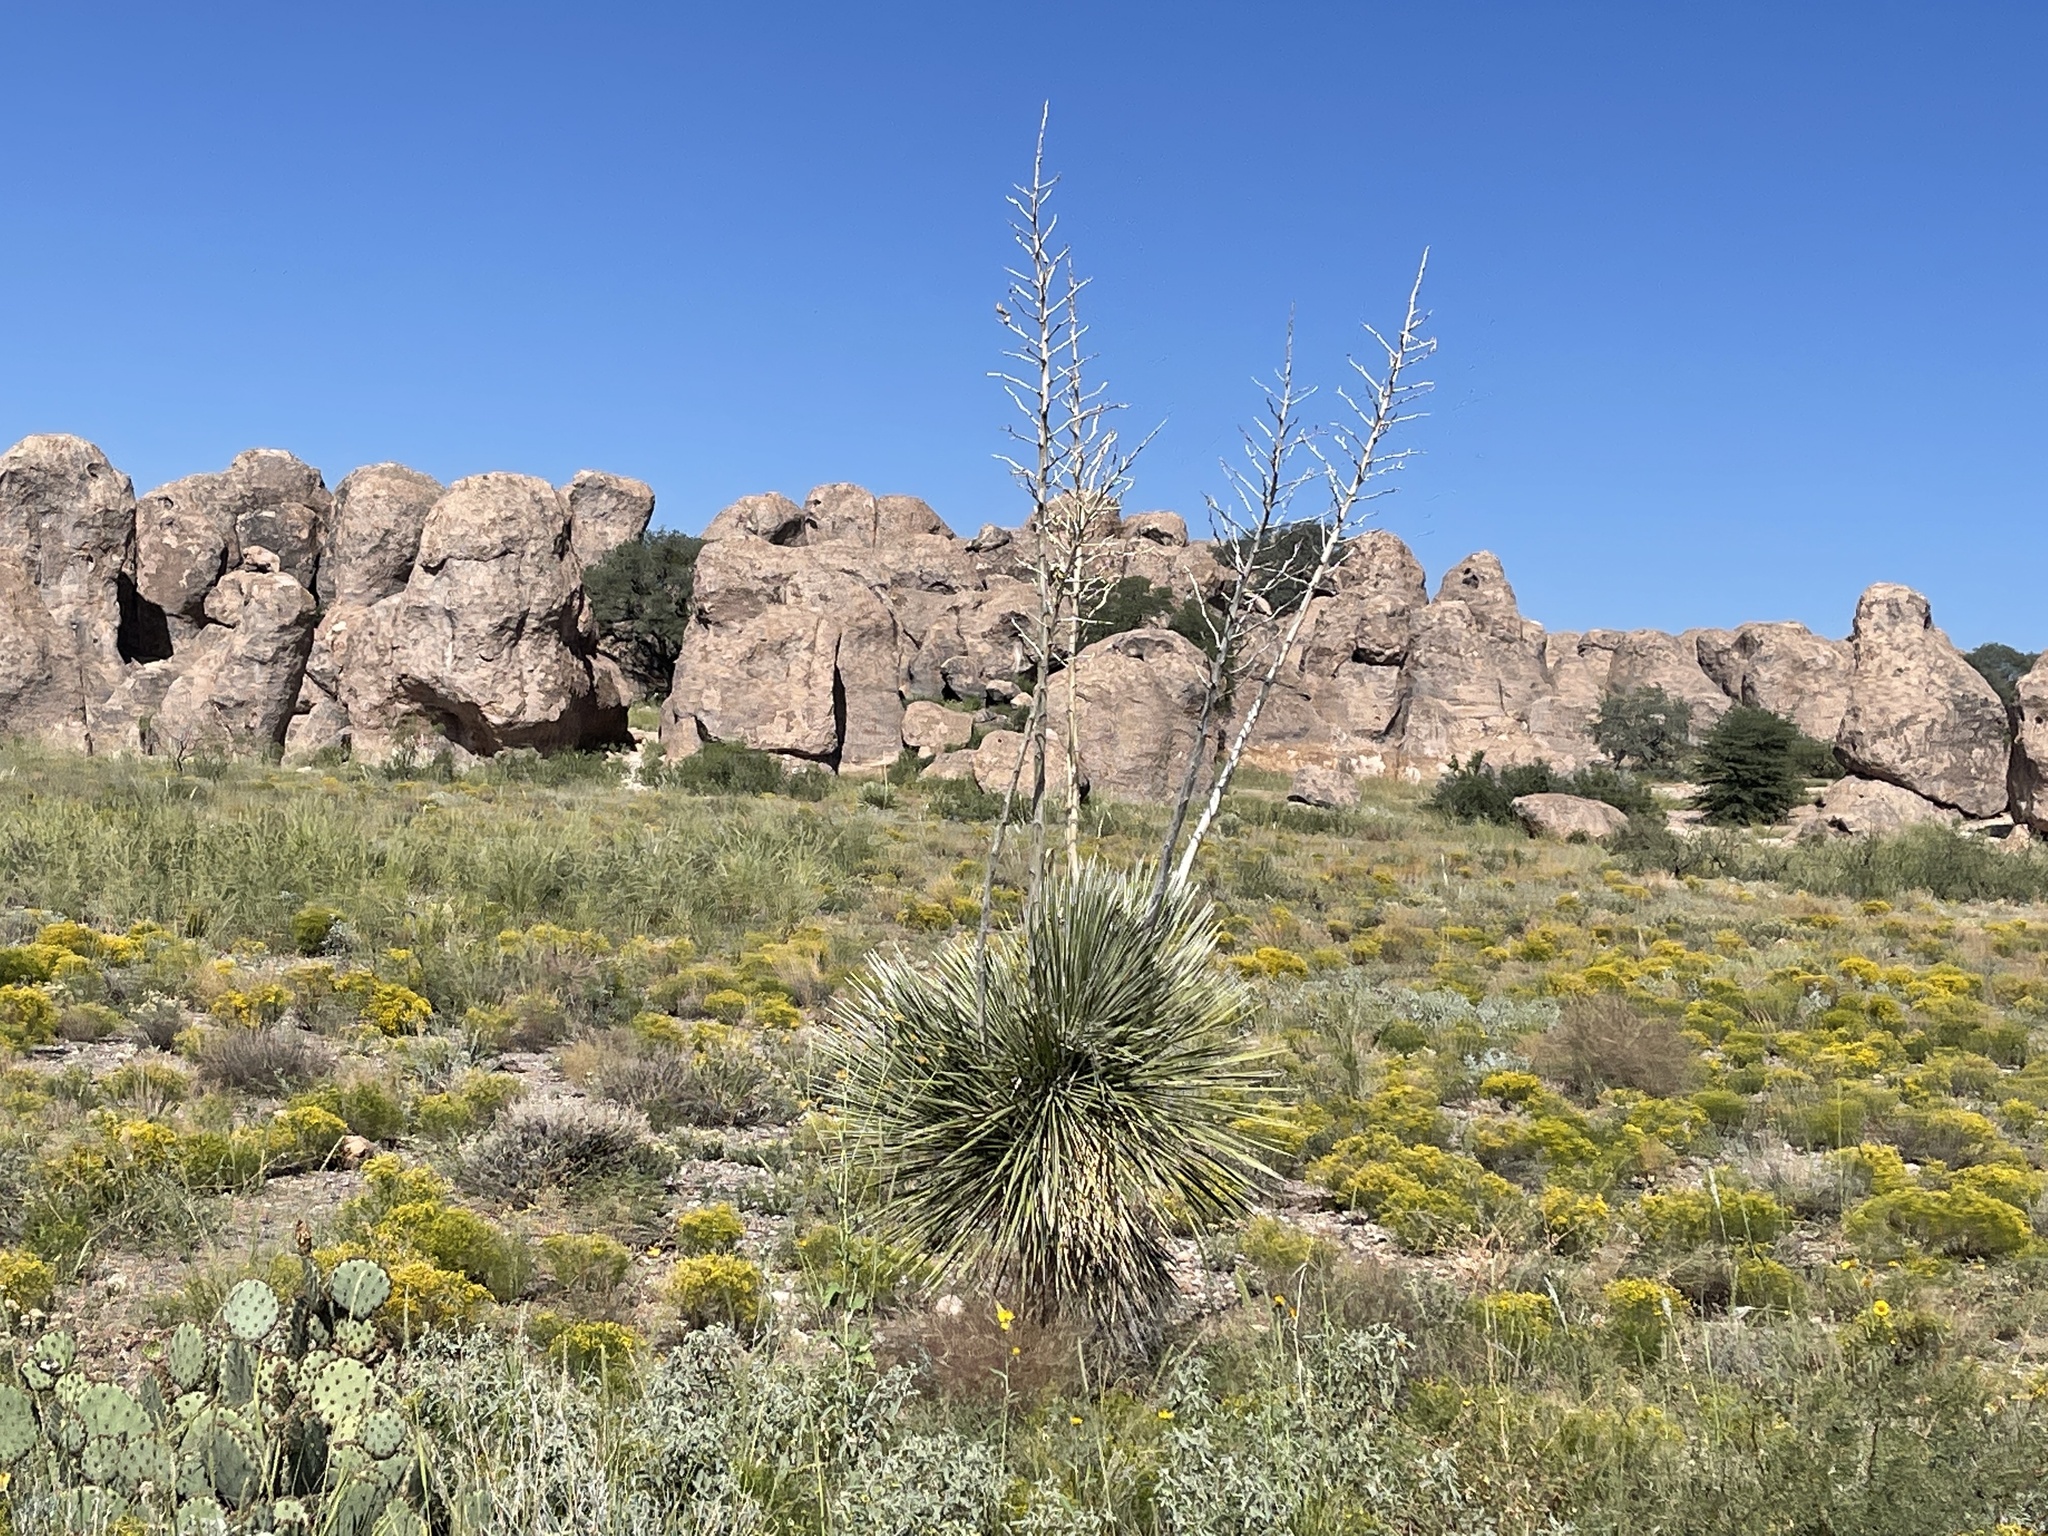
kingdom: Plantae
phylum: Tracheophyta
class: Liliopsida
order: Asparagales
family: Asparagaceae
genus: Yucca
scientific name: Yucca elata
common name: Palmella
